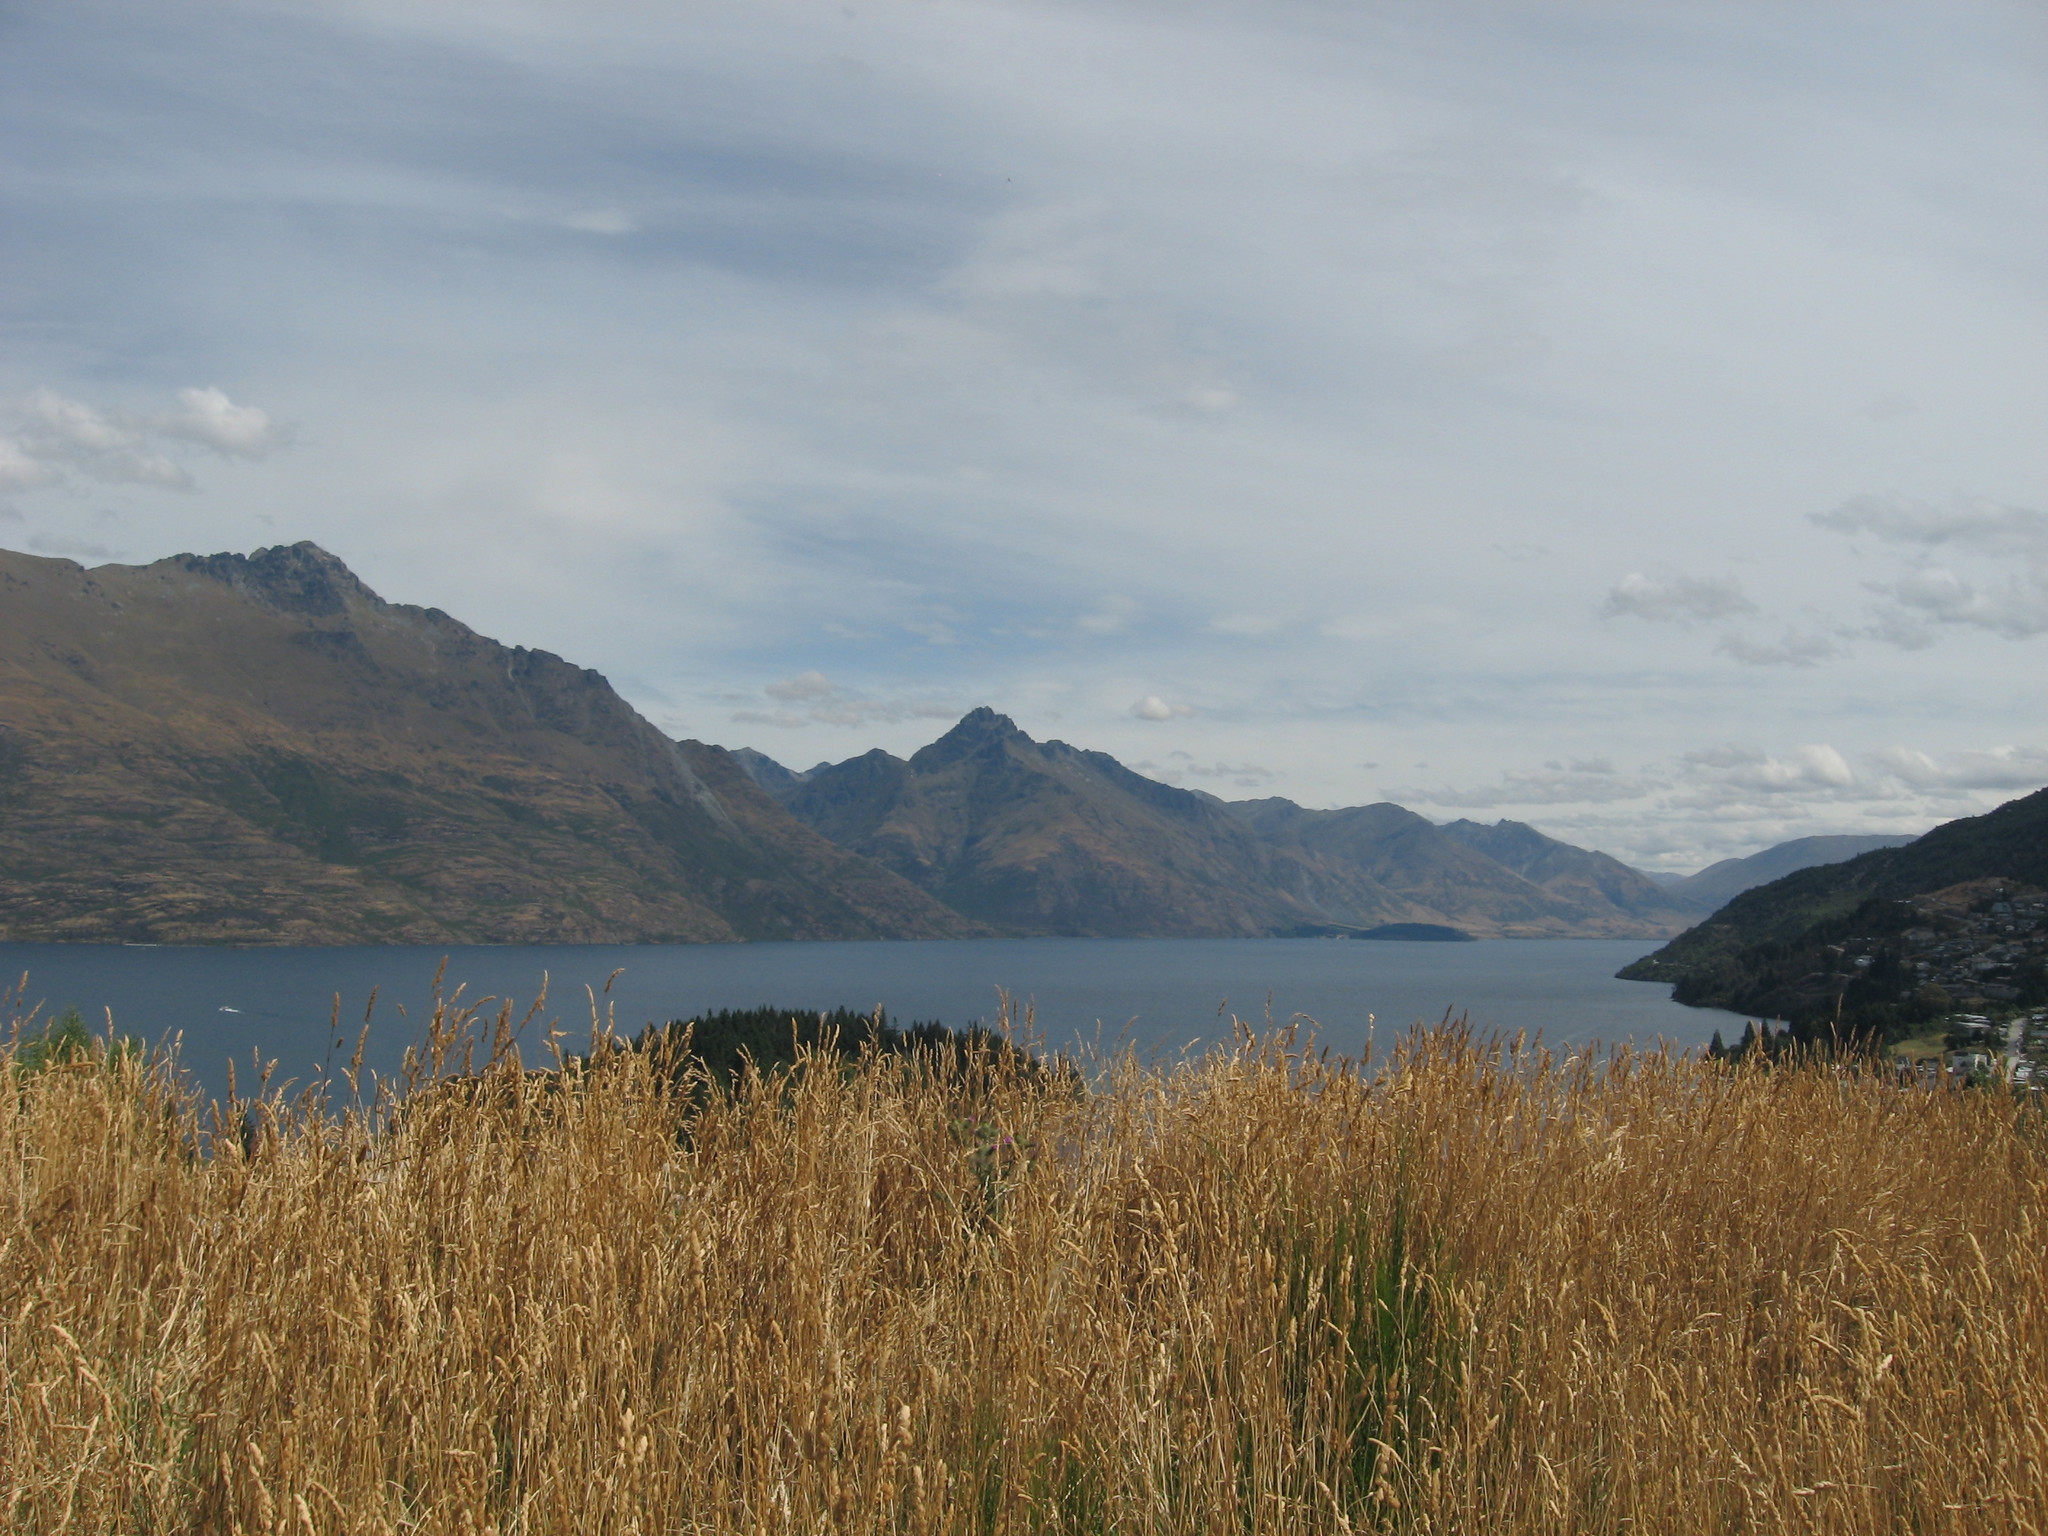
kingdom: Plantae
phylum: Tracheophyta
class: Liliopsida
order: Poales
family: Poaceae
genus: Dactylis
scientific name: Dactylis glomerata
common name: Orchardgrass
